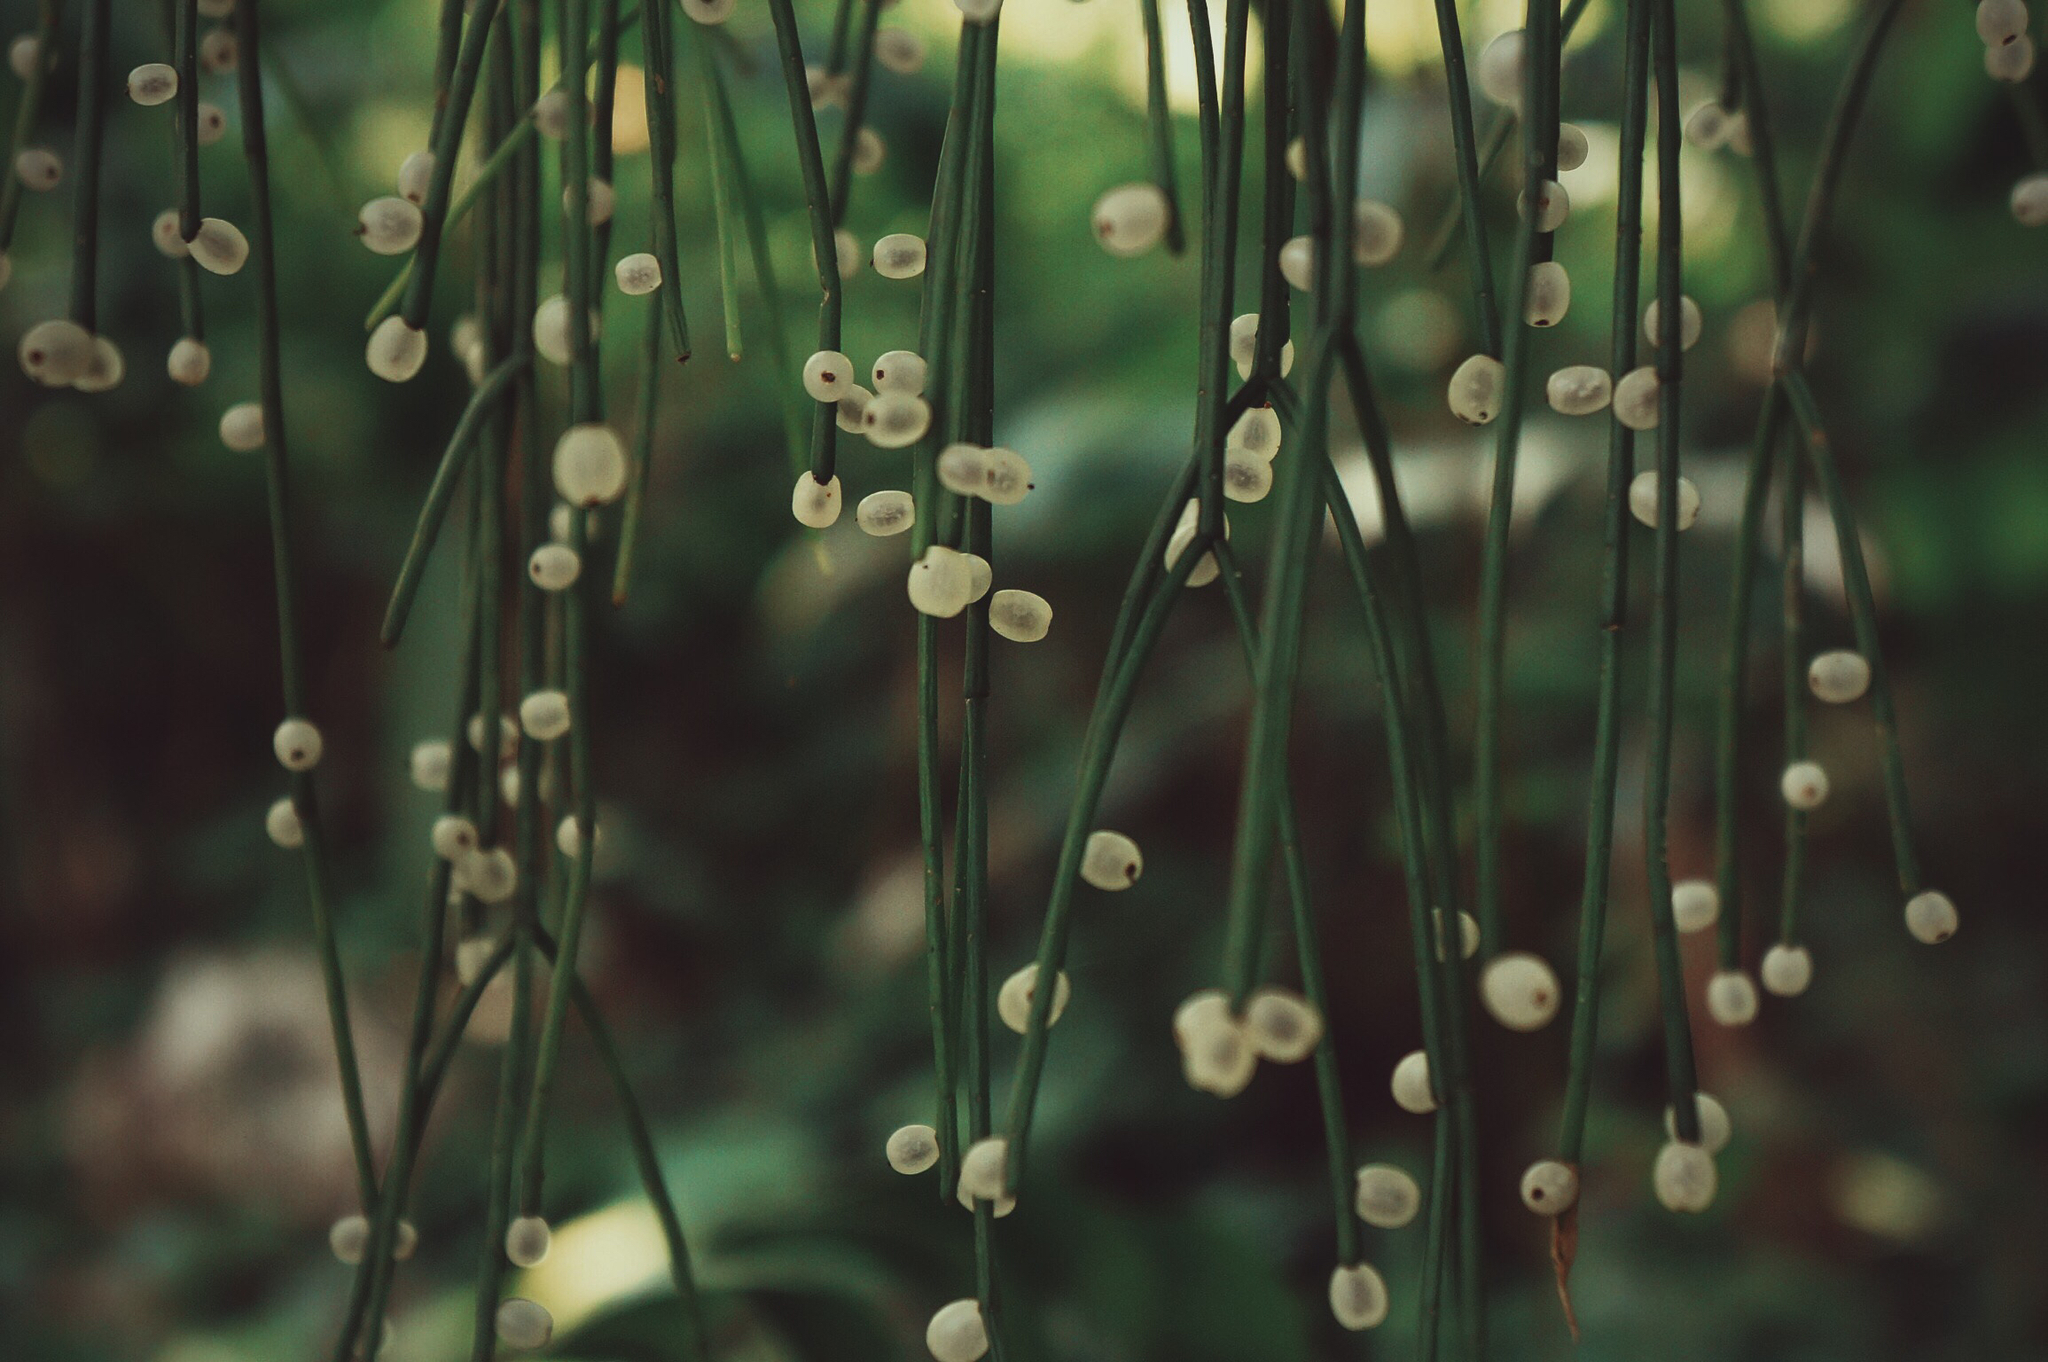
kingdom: Plantae
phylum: Tracheophyta
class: Magnoliopsida
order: Caryophyllales
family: Cactaceae
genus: Rhipsalis
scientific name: Rhipsalis baccifera
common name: Mistletoe cactus
